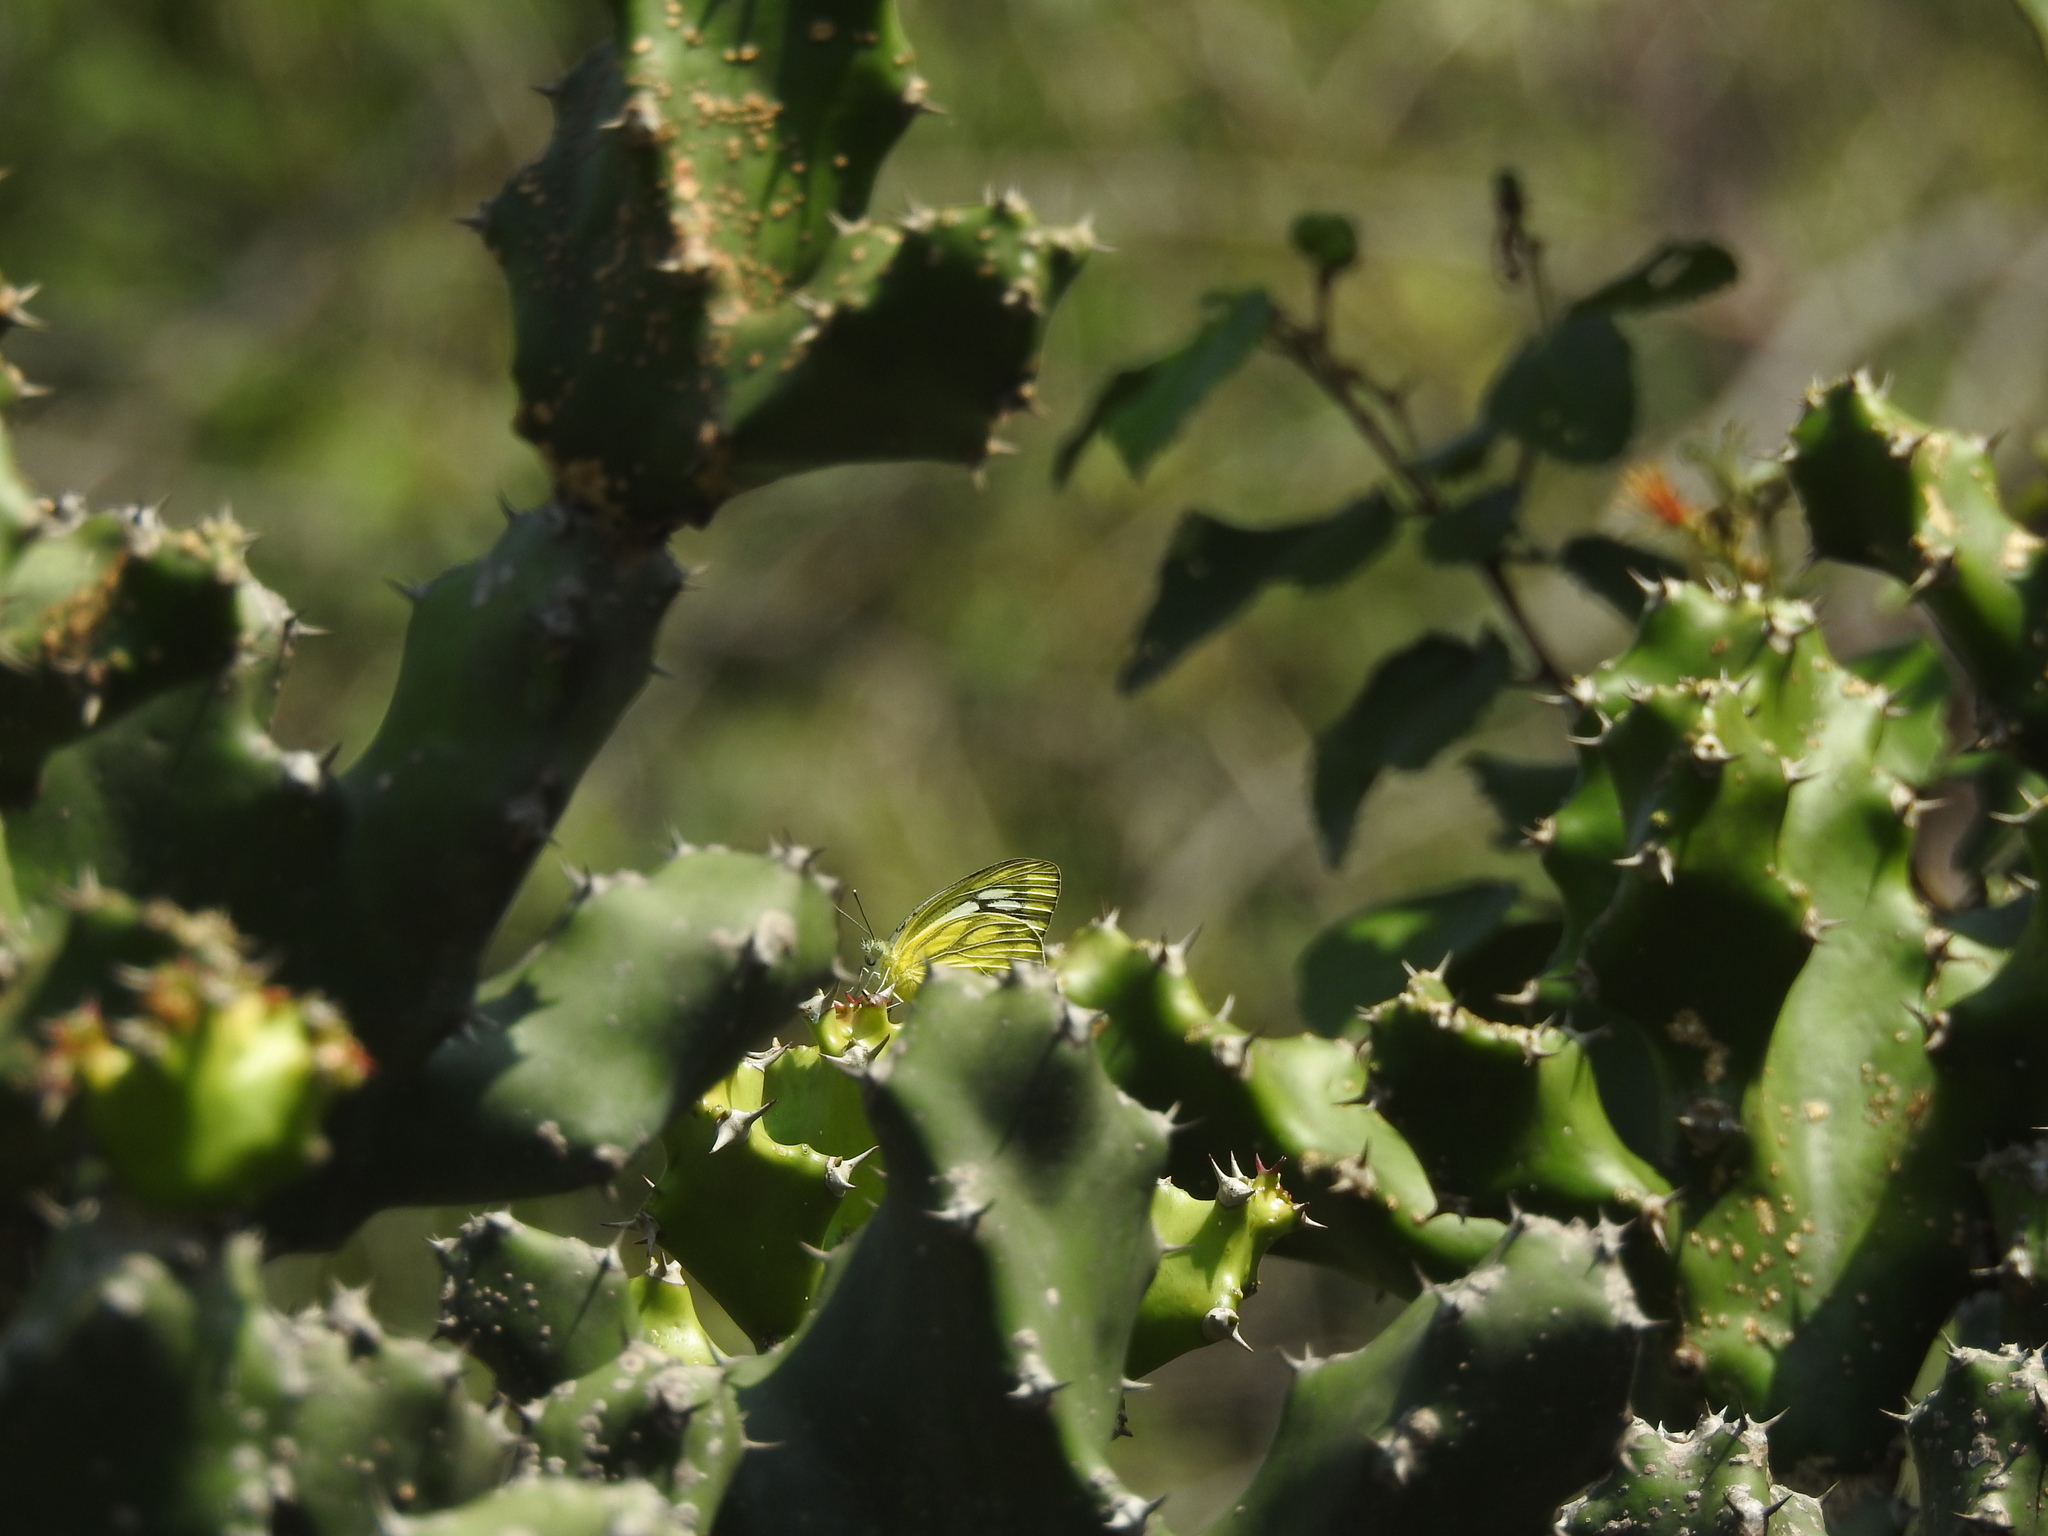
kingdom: Animalia
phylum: Arthropoda
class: Insecta
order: Lepidoptera
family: Pieridae
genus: Cepora
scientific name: Cepora nerissa
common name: Common gull
